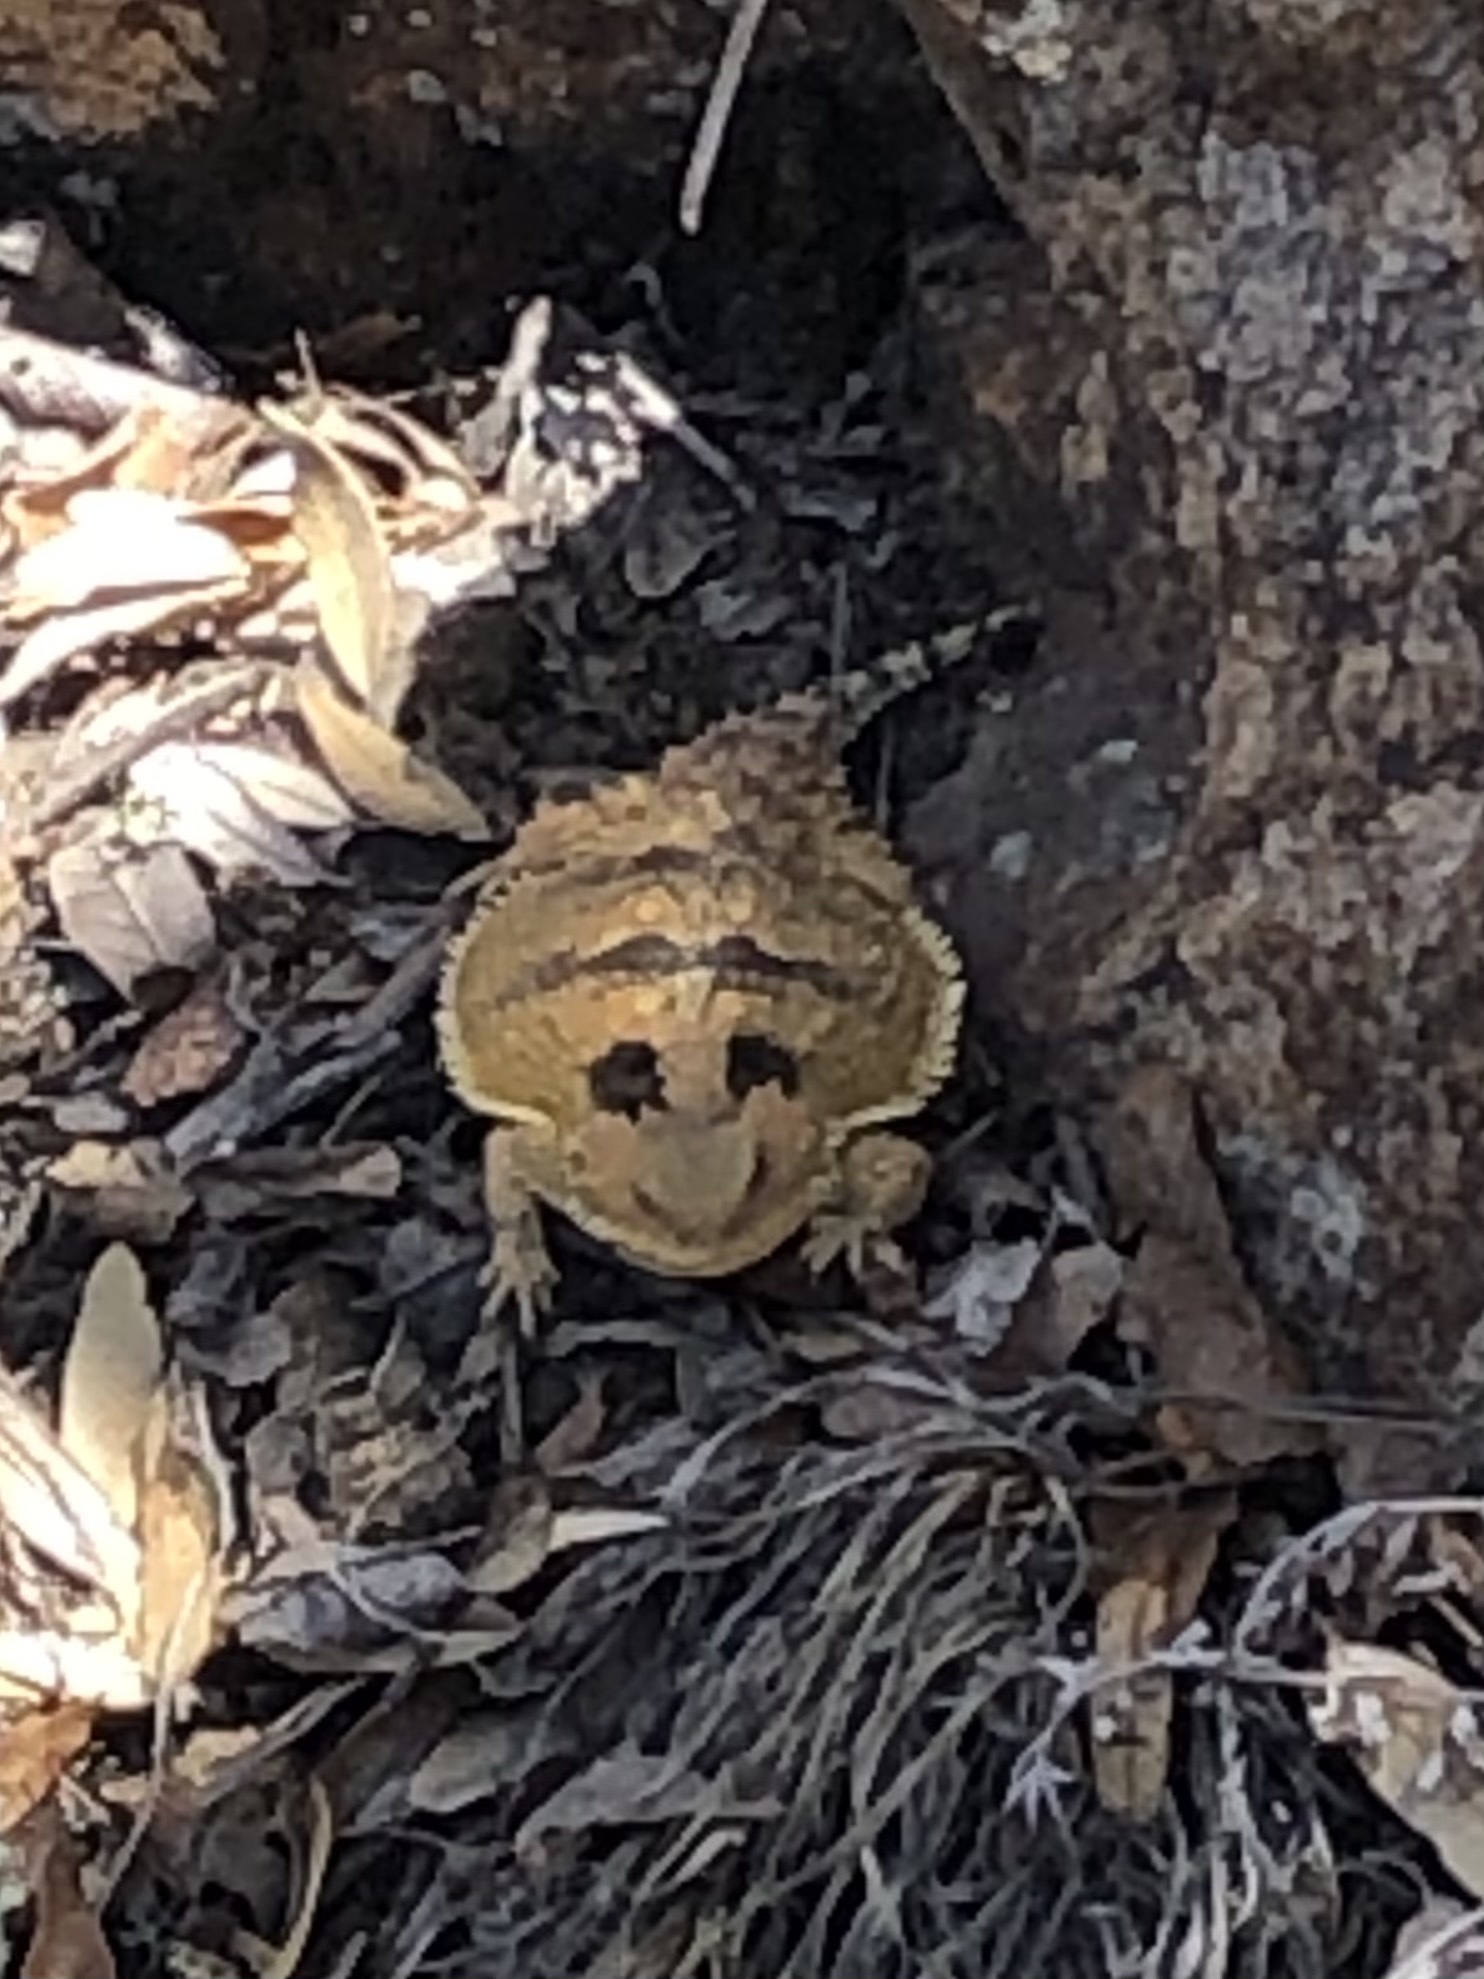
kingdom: Animalia
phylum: Chordata
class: Squamata
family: Phrynosomatidae
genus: Phrynosoma
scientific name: Phrynosoma hernandesi
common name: Greater short-horned lizard
